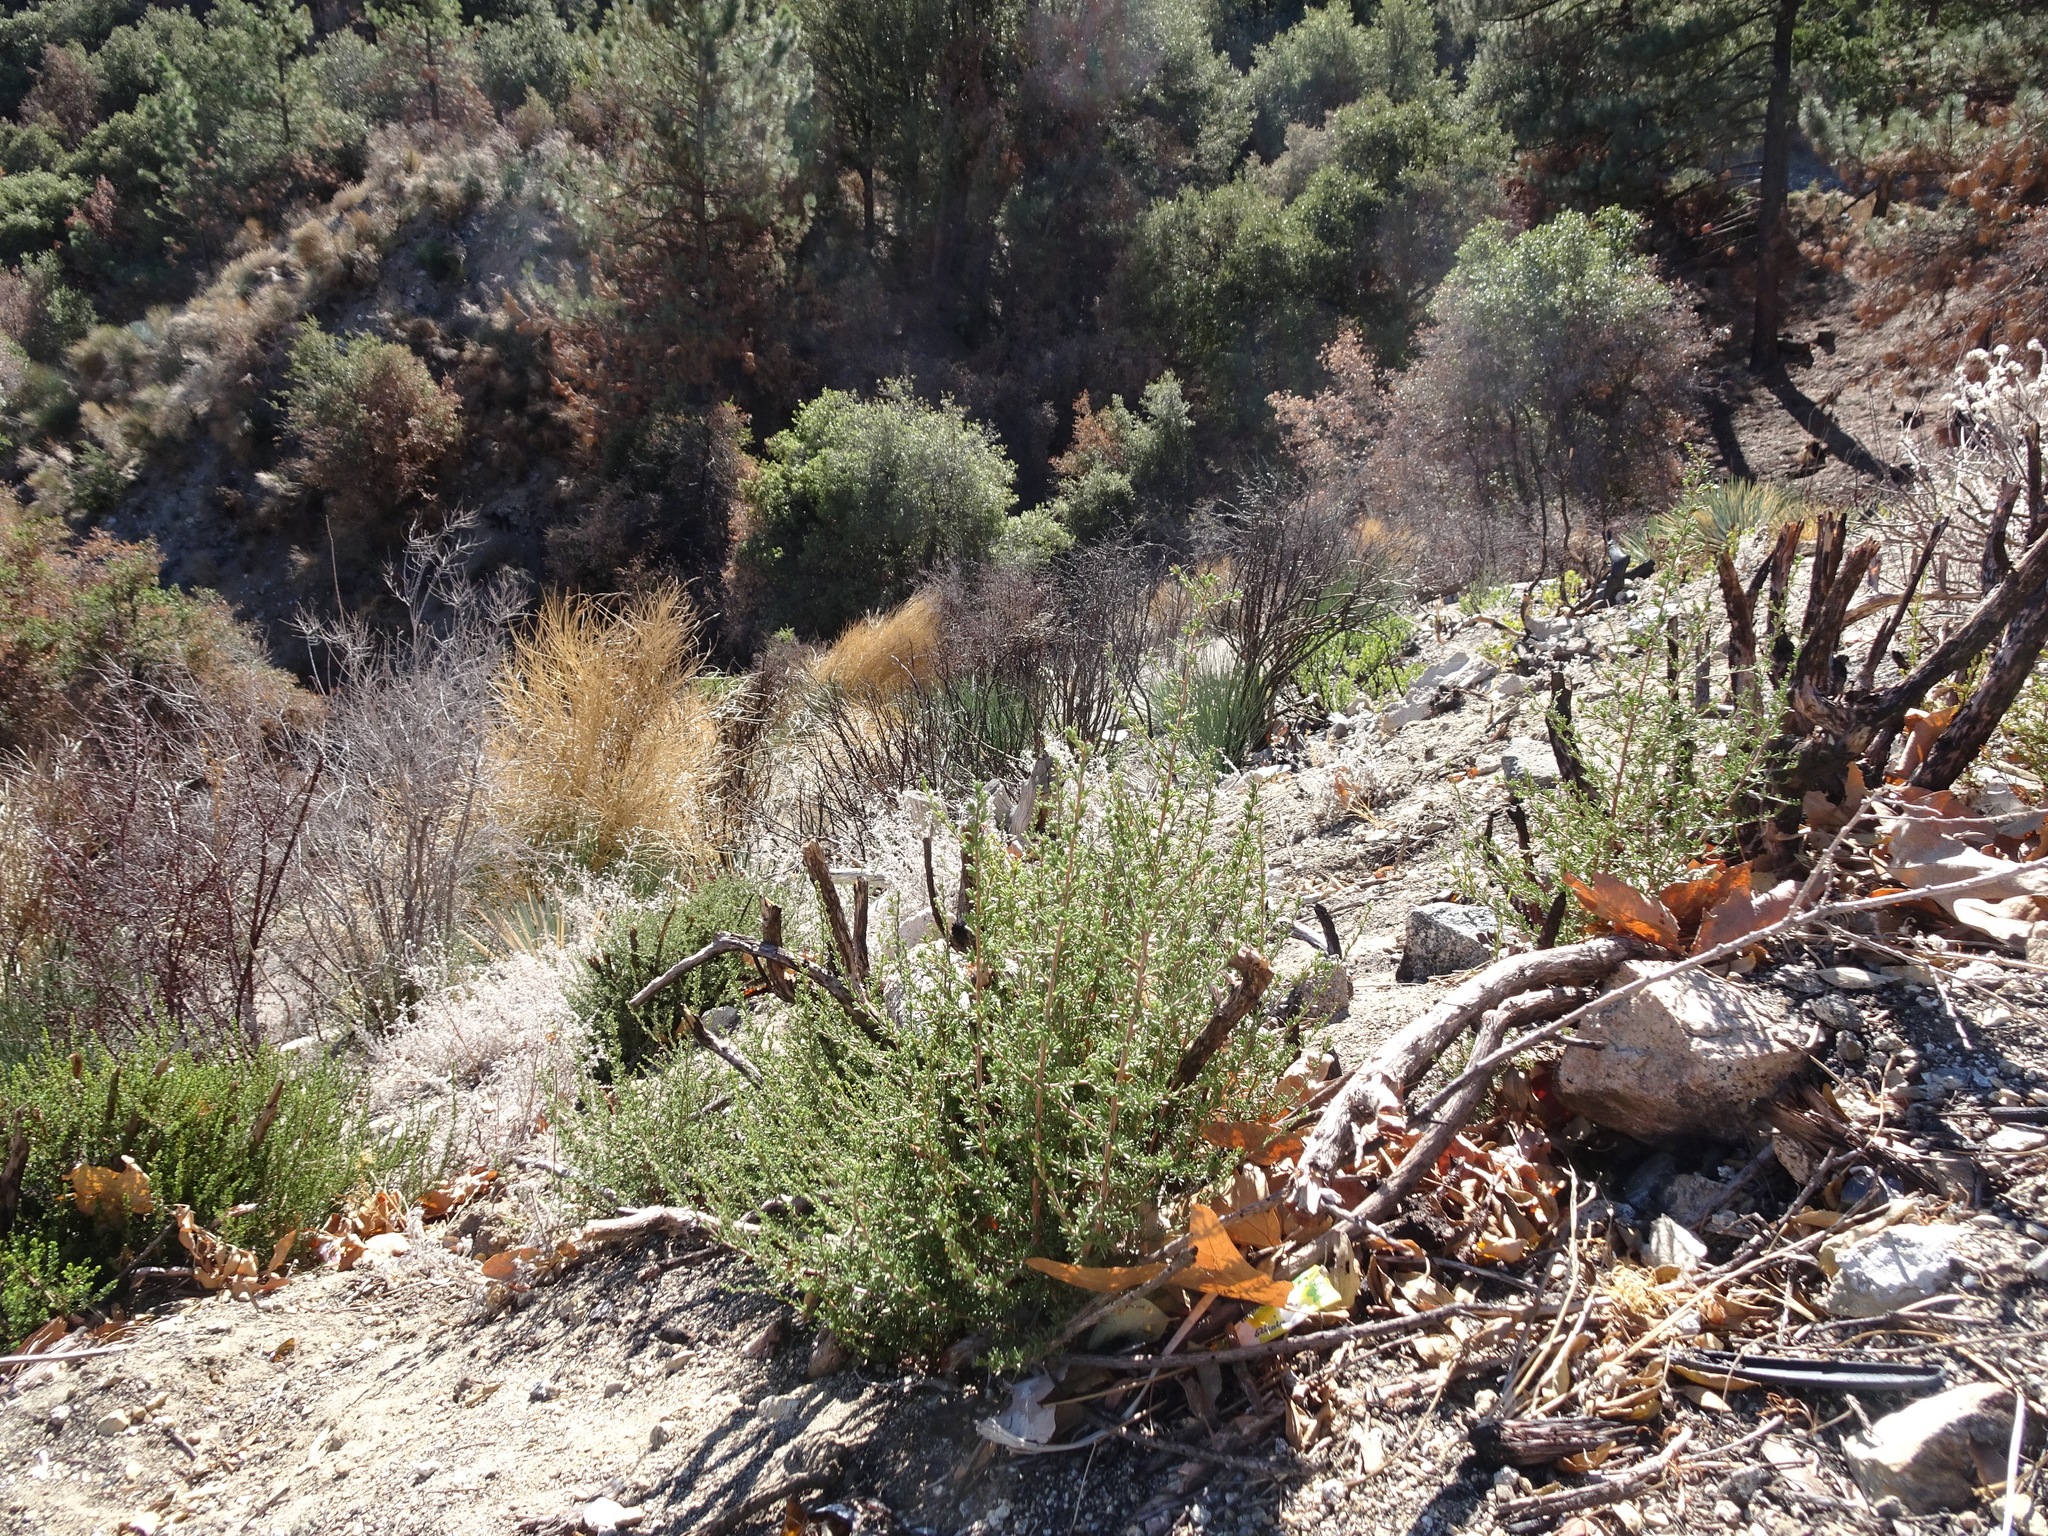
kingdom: Plantae
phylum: Tracheophyta
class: Magnoliopsida
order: Rosales
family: Rosaceae
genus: Adenostoma
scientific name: Adenostoma fasciculatum
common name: Chamise
